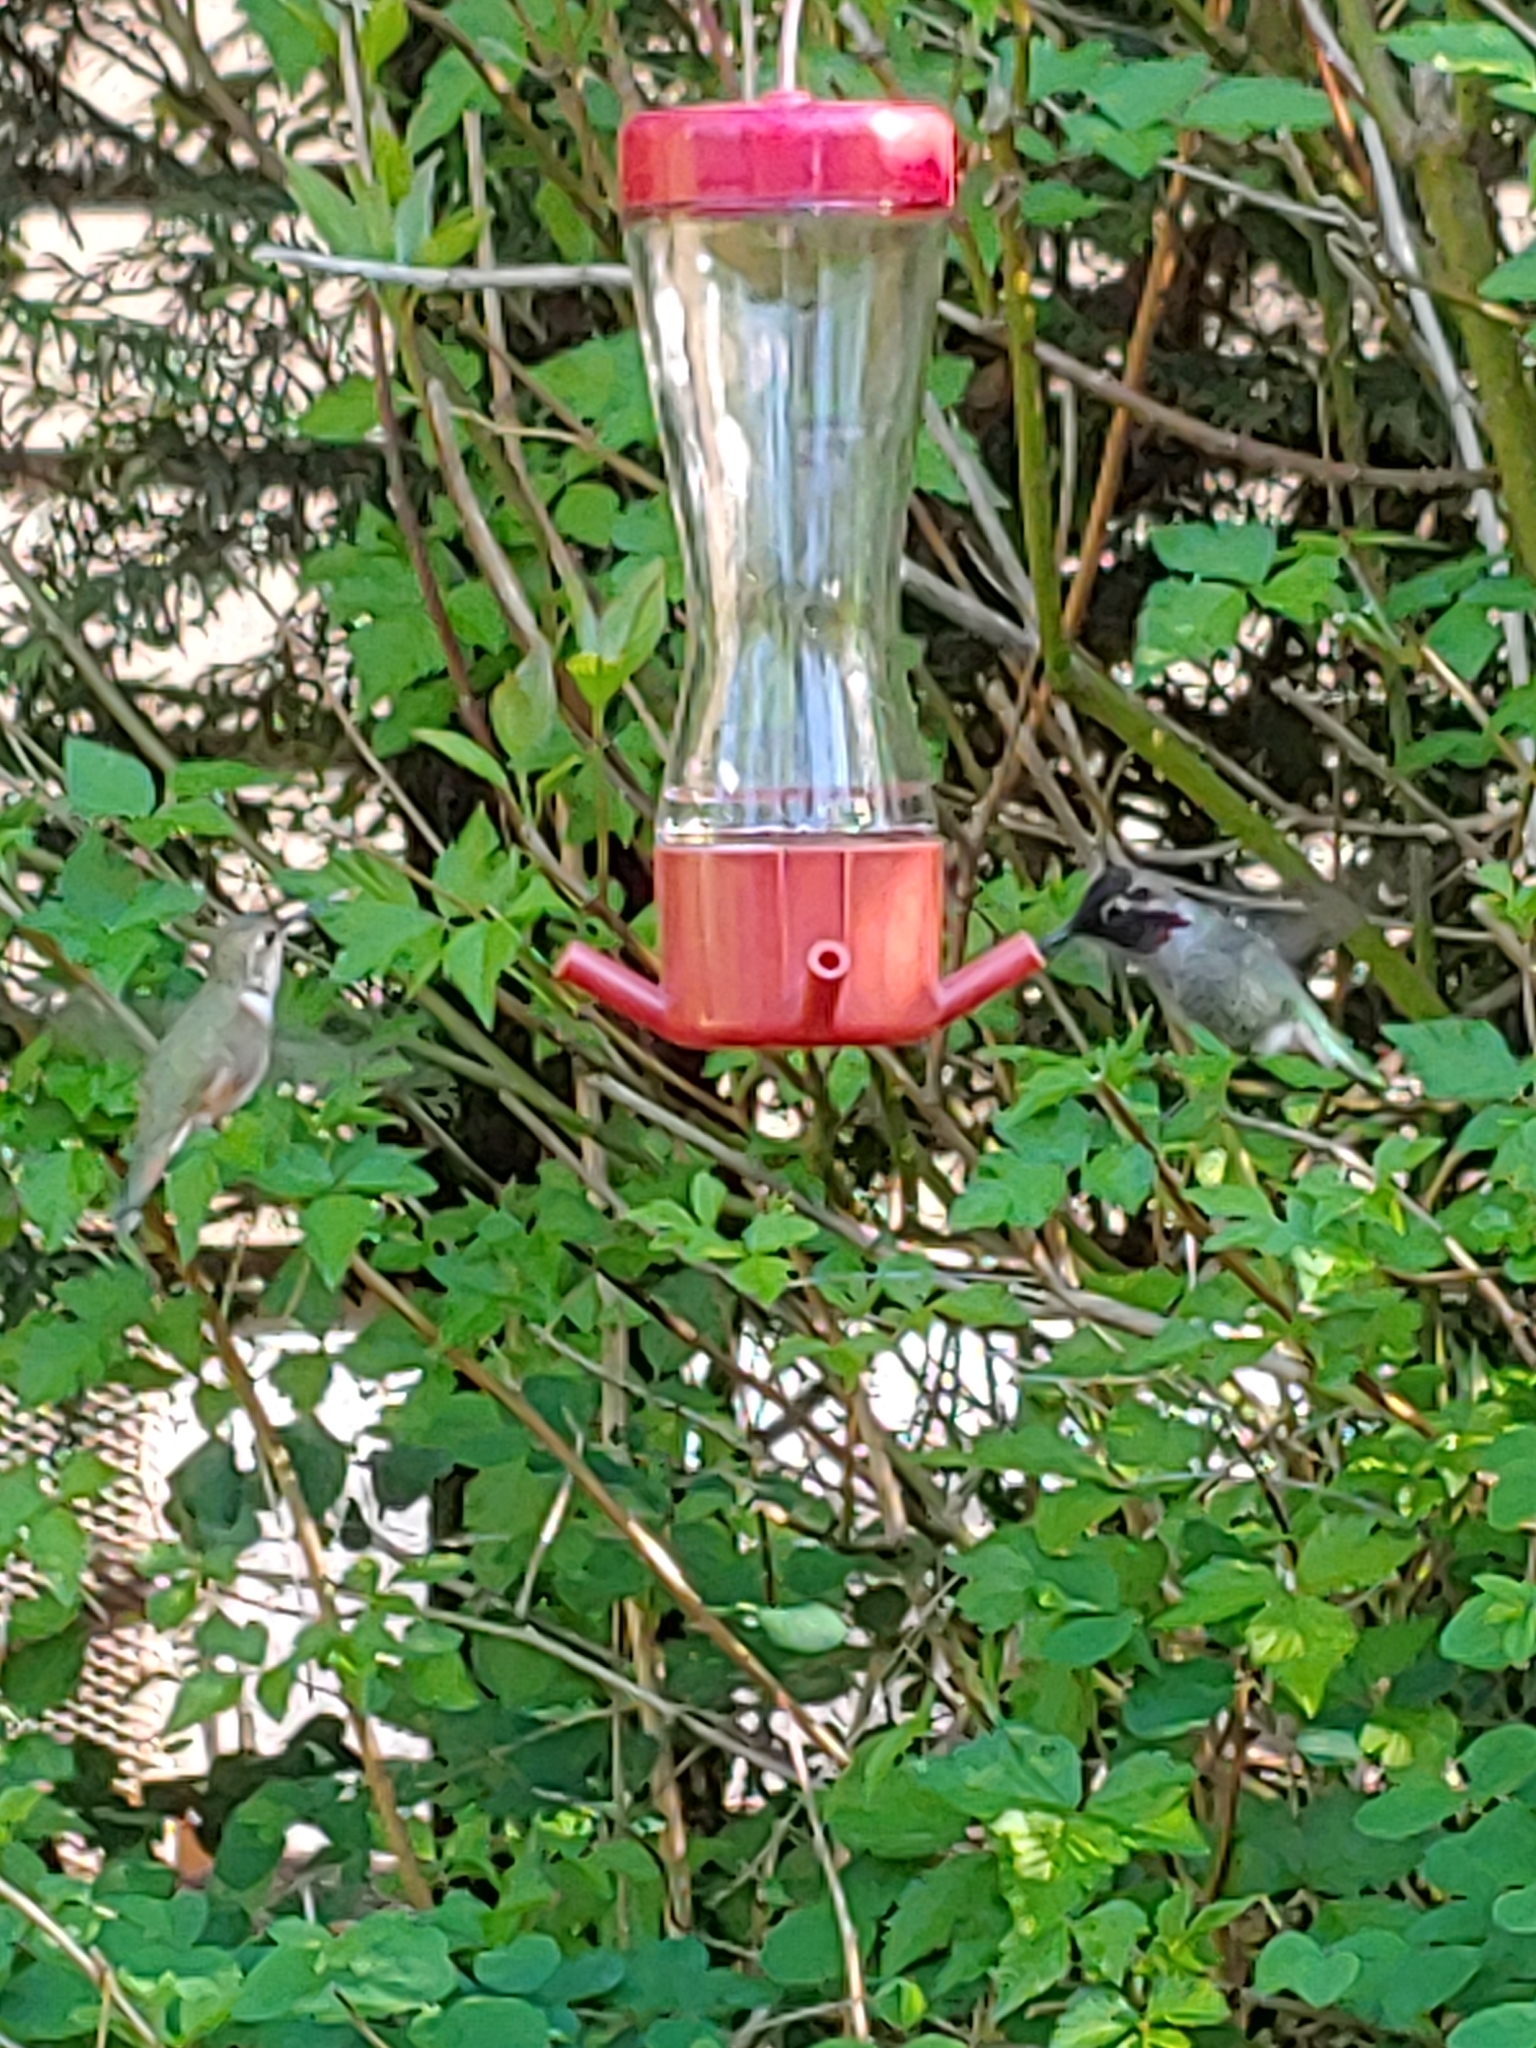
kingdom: Animalia
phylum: Chordata
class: Aves
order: Apodiformes
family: Trochilidae
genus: Calypte
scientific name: Calypte anna
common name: Anna's hummingbird
